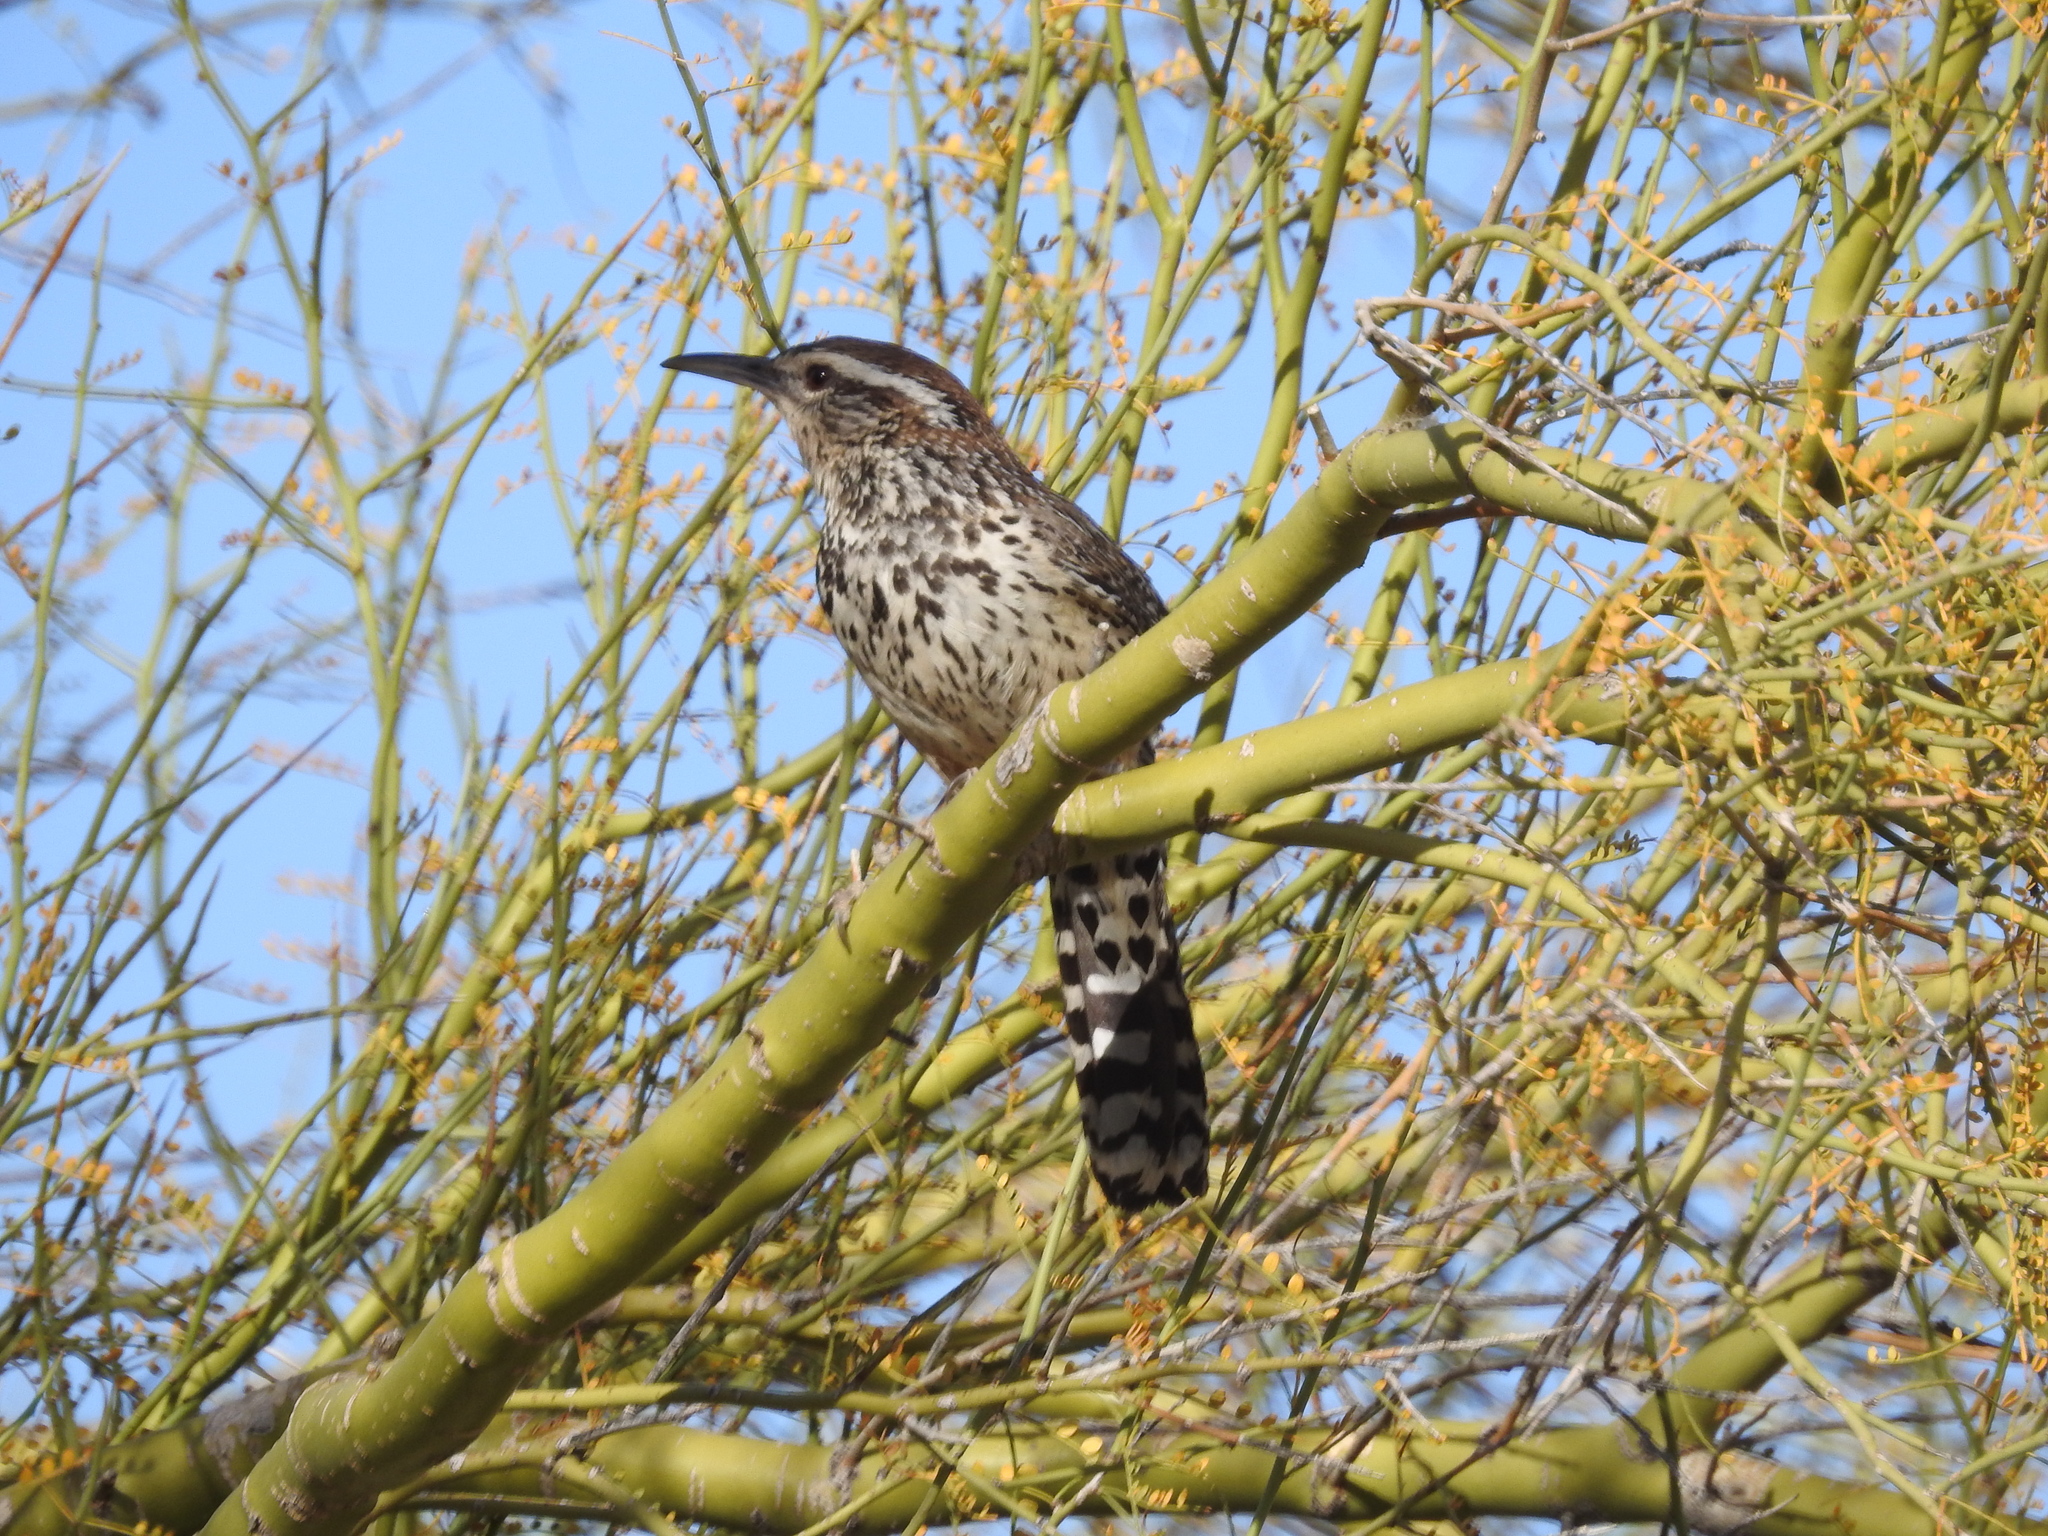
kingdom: Animalia
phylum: Chordata
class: Aves
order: Passeriformes
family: Troglodytidae
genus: Campylorhynchus
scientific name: Campylorhynchus brunneicapillus
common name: Cactus wren
